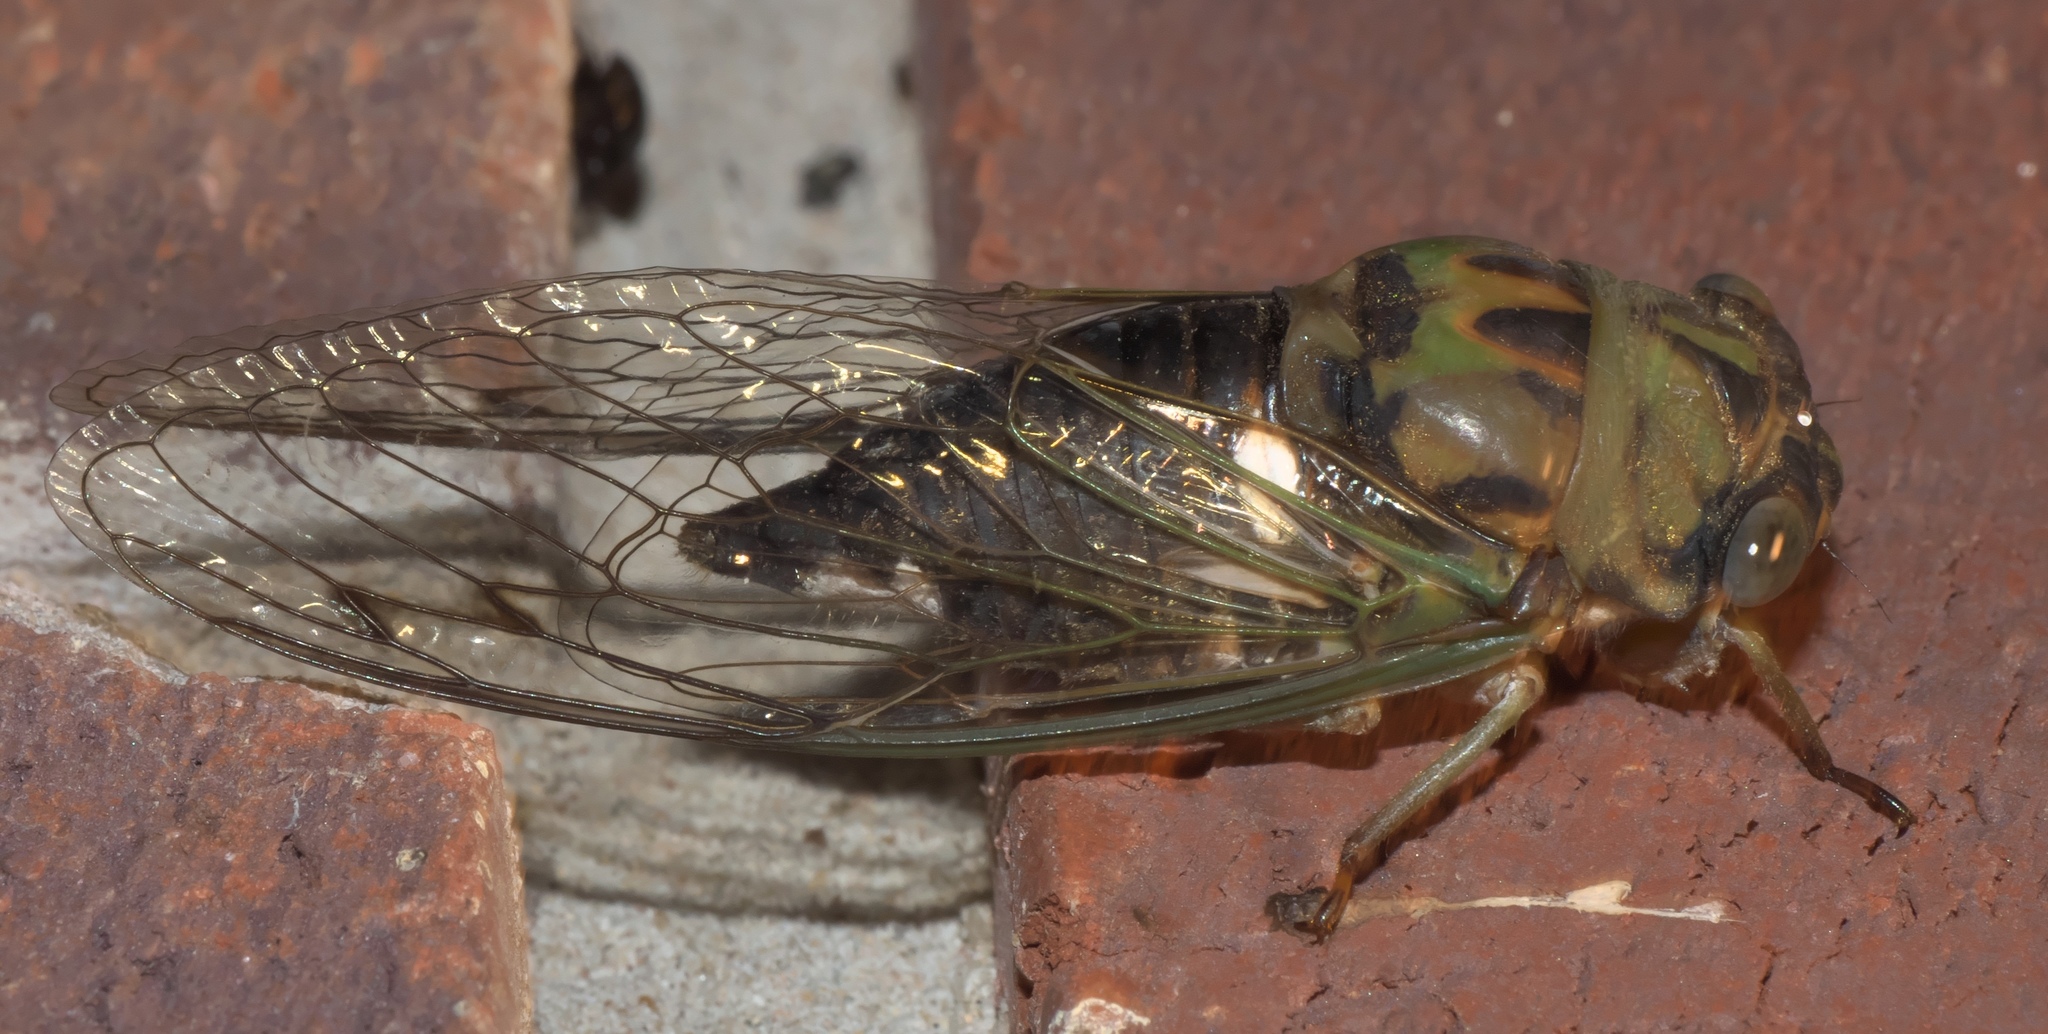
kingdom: Animalia
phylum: Arthropoda
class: Insecta
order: Hemiptera
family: Cicadidae
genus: Neotibicen
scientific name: Neotibicen pruinosus
